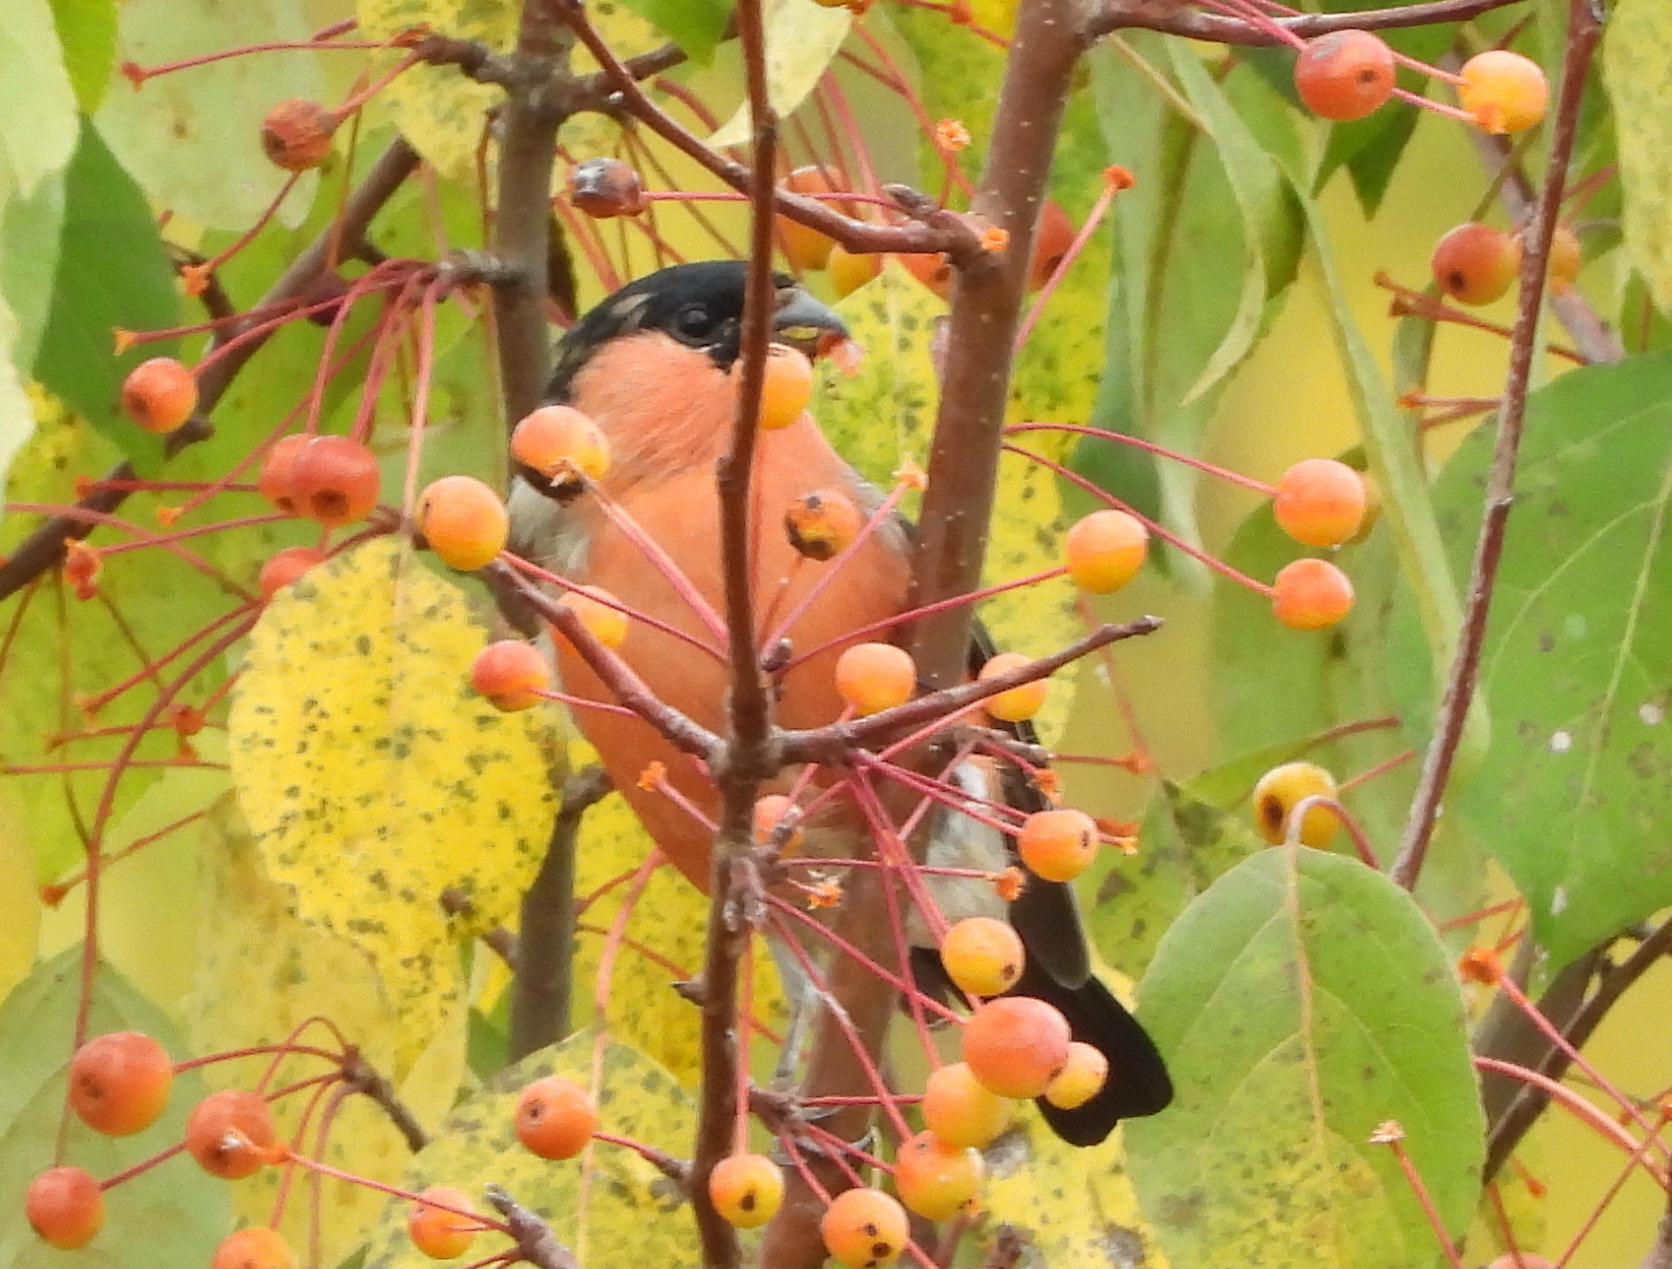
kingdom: Animalia
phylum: Chordata
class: Aves
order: Passeriformes
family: Fringillidae
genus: Pyrrhula
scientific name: Pyrrhula pyrrhula
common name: Eurasian bullfinch
